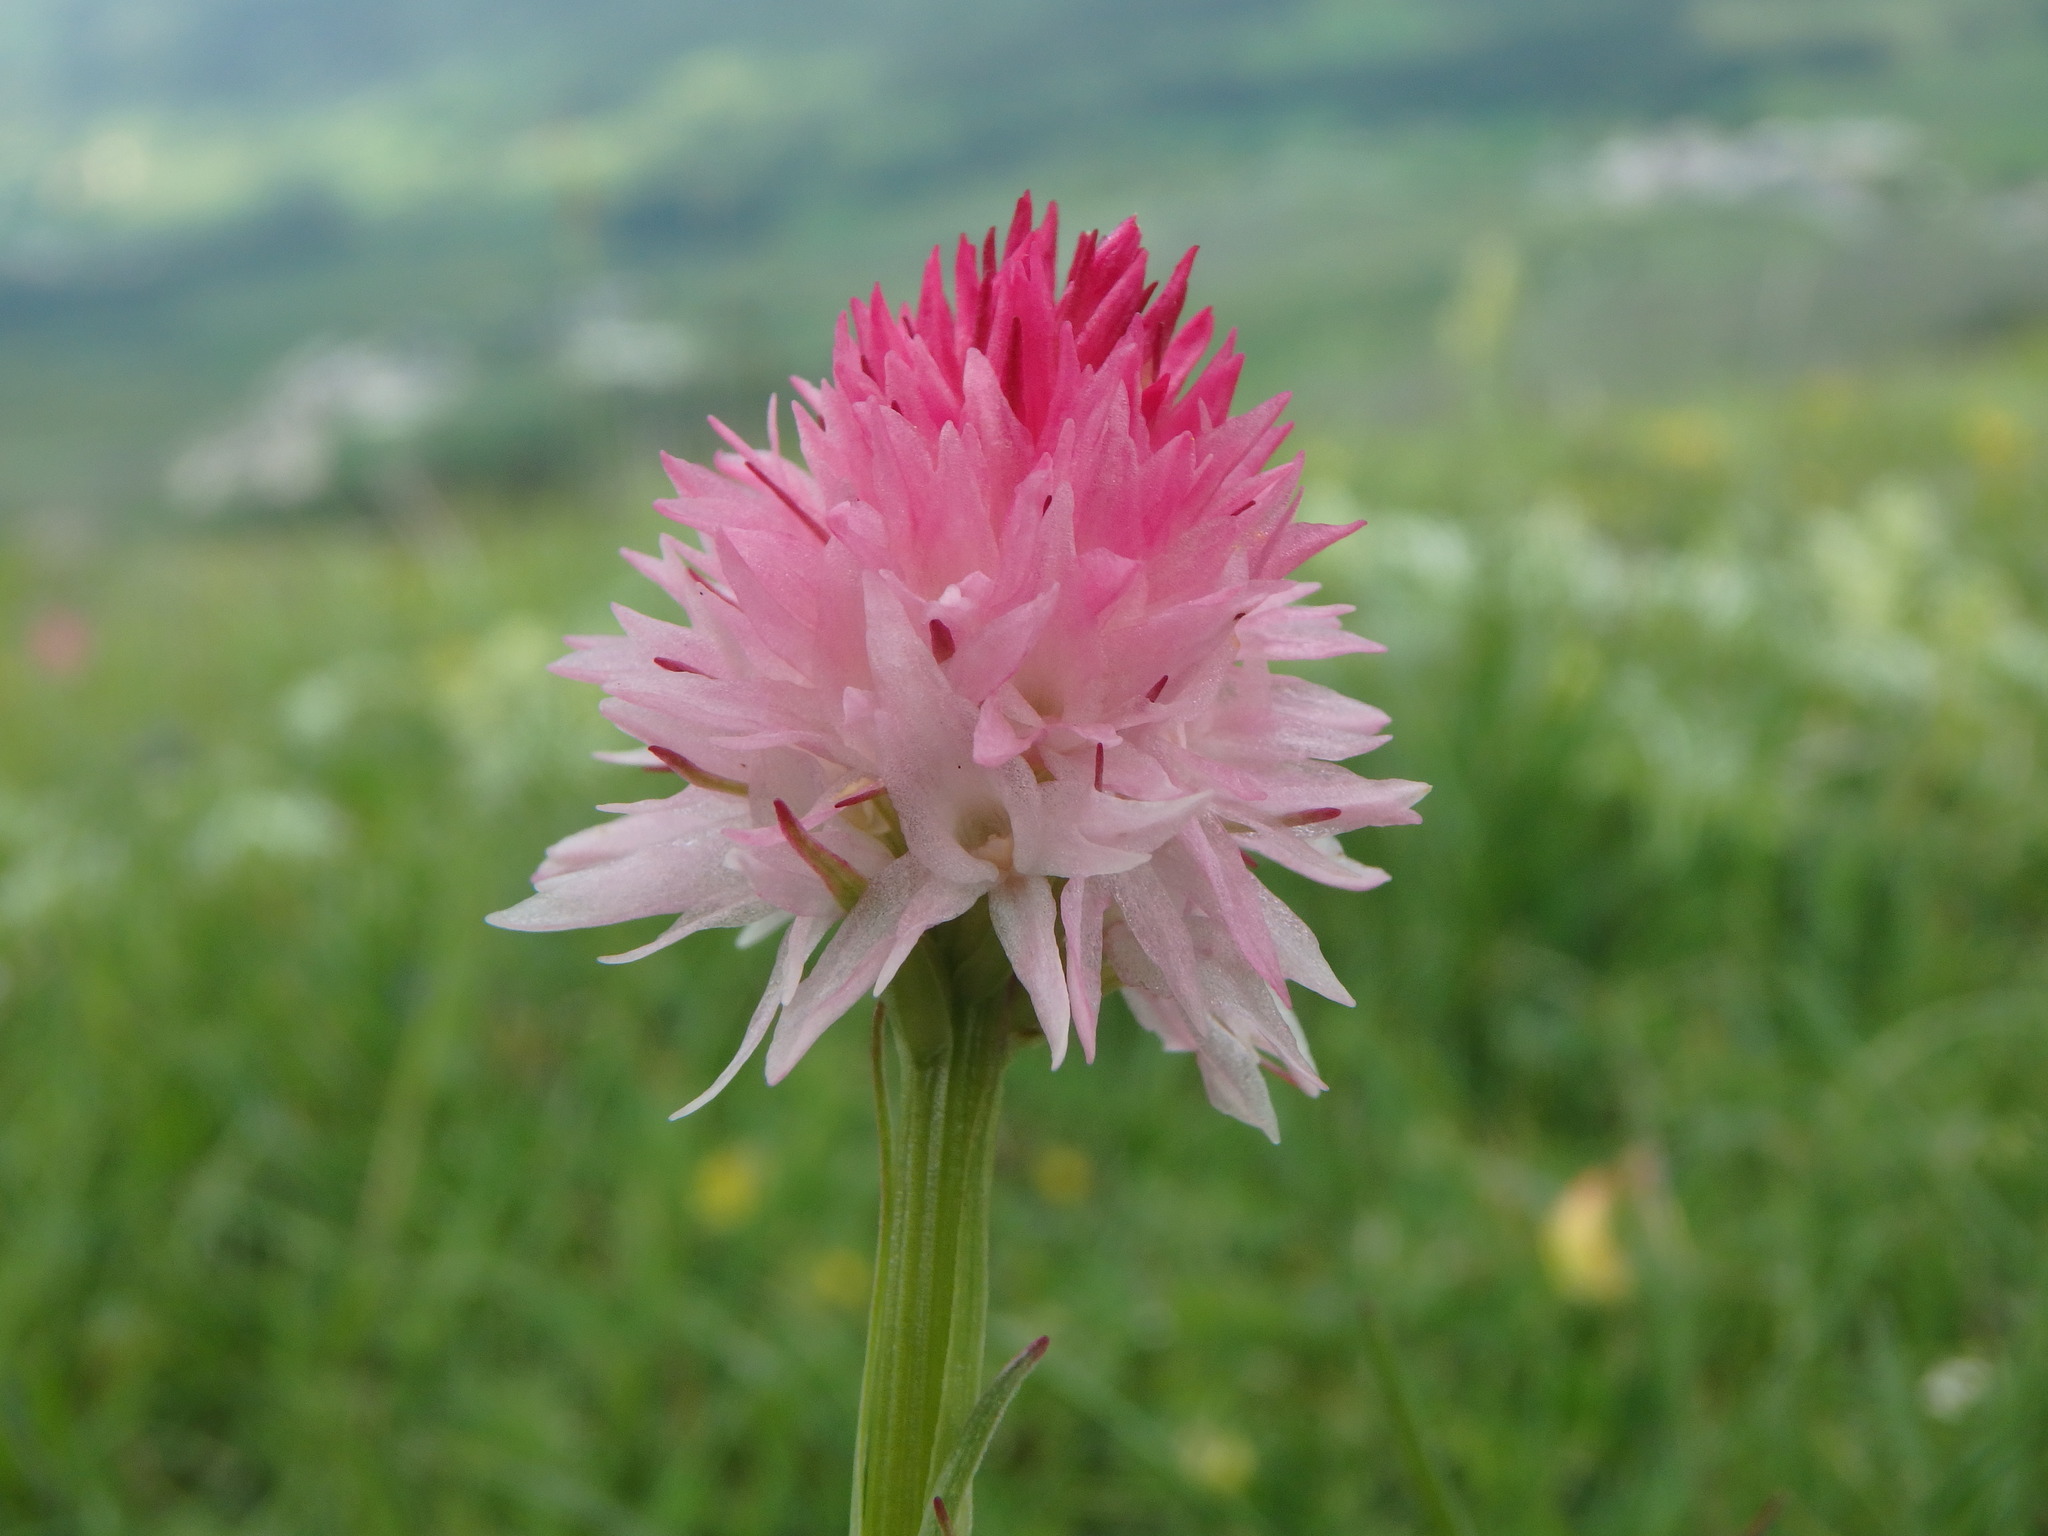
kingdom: Plantae
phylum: Tracheophyta
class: Liliopsida
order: Asparagales
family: Orchidaceae
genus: Gymnadenia
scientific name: Gymnadenia corneliana
